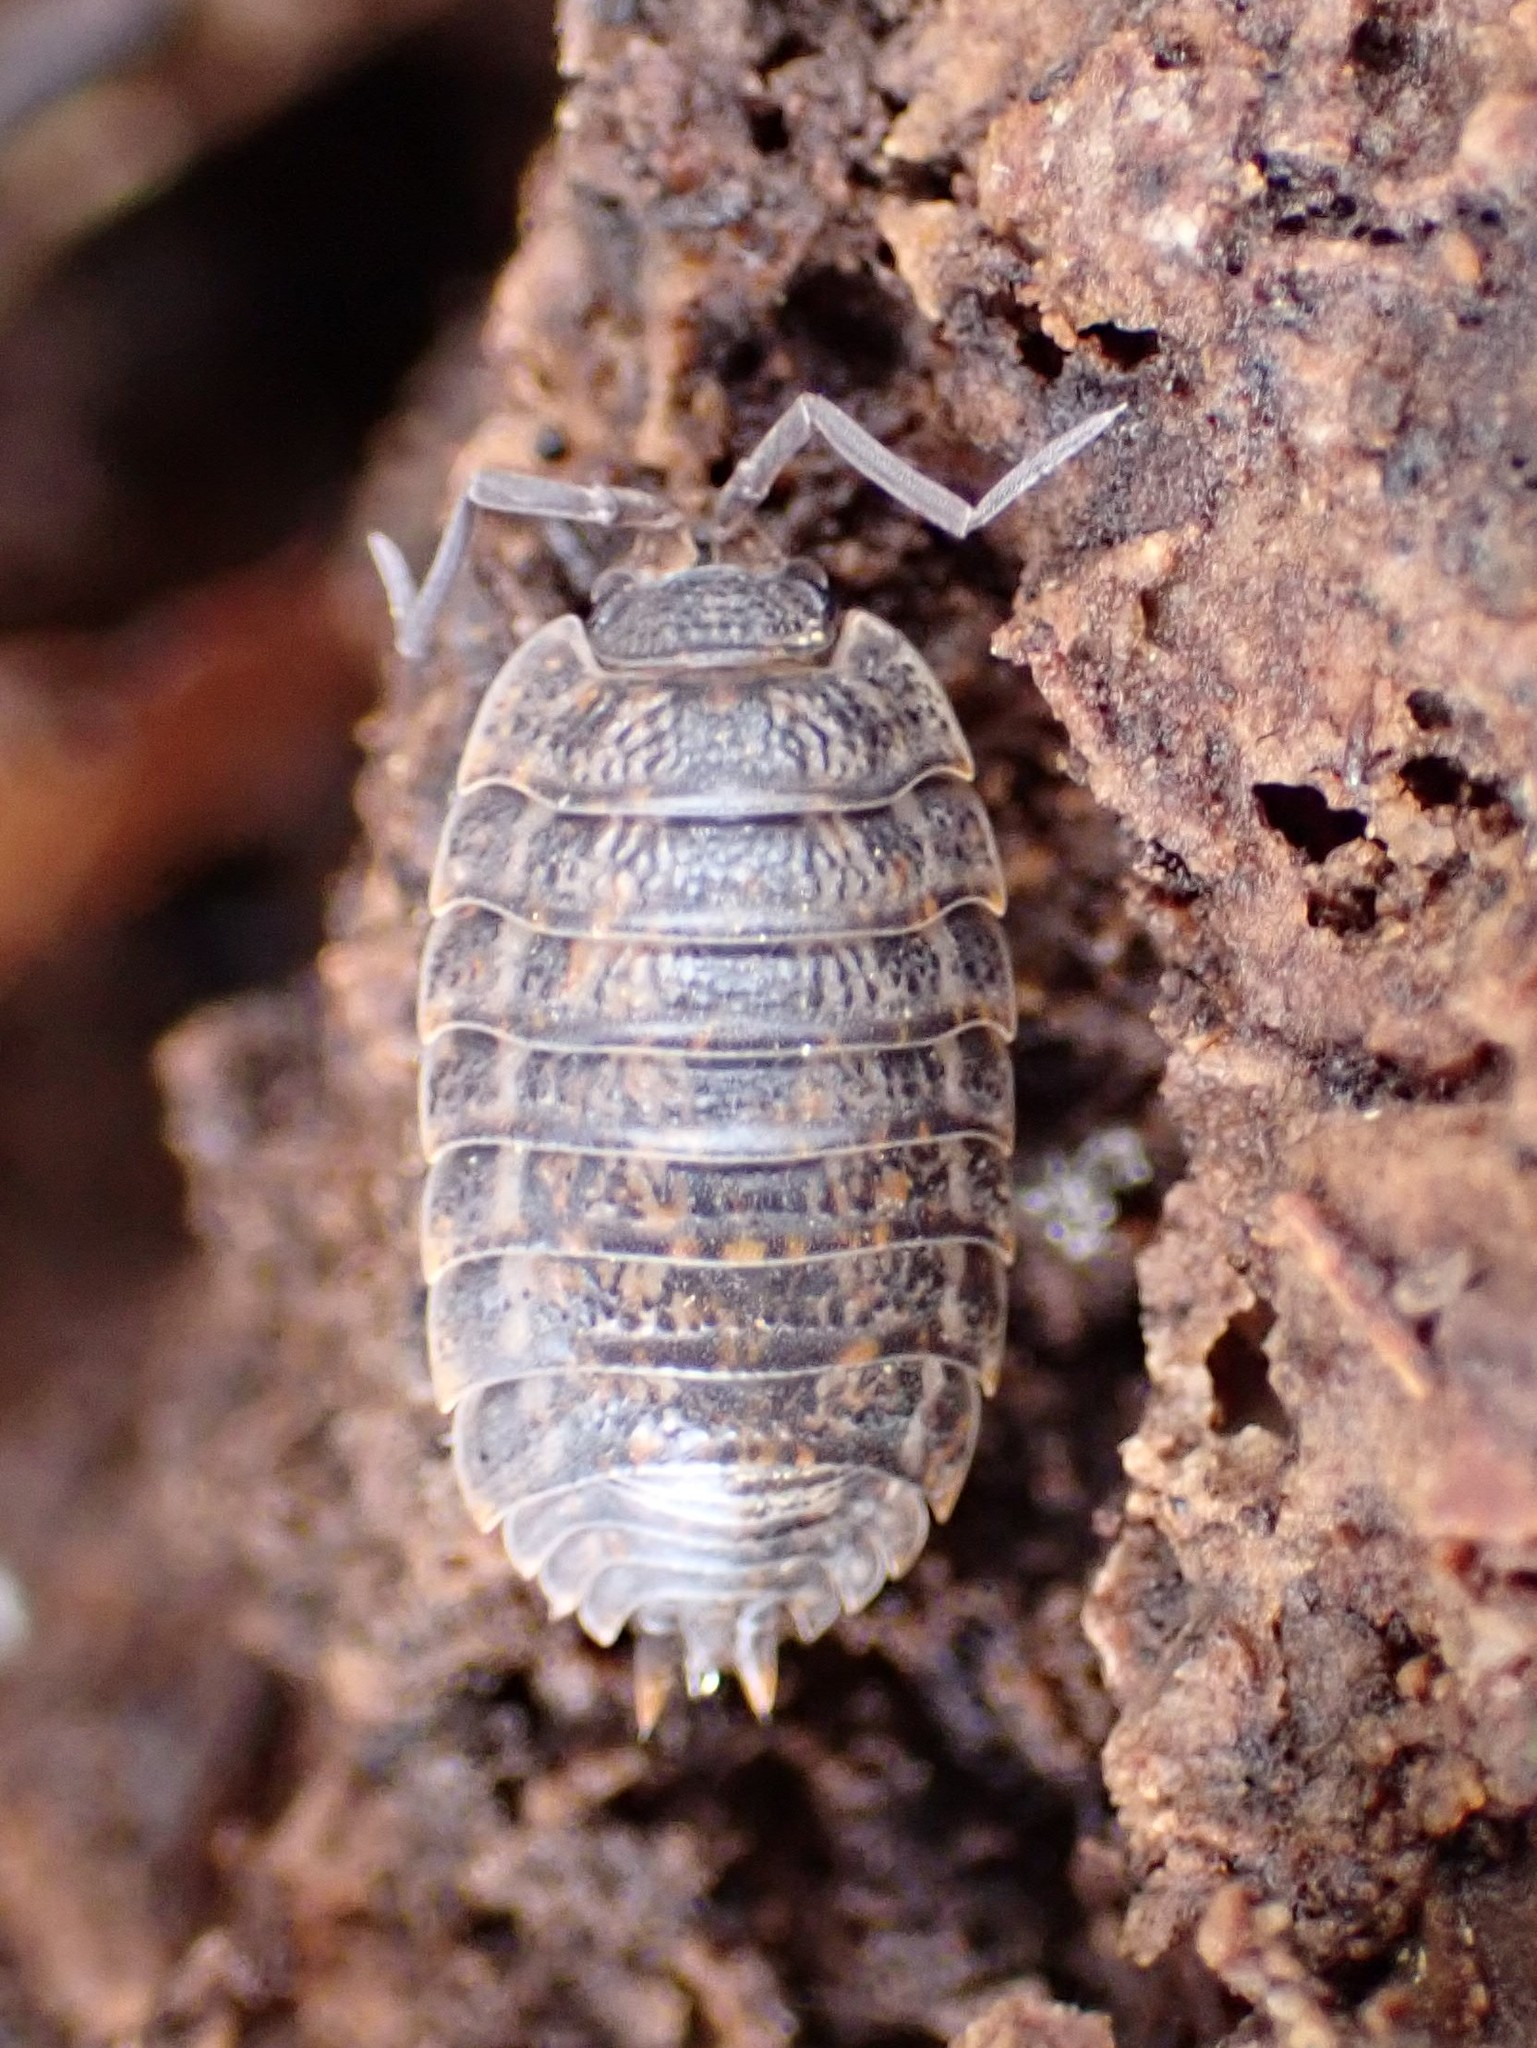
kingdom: Animalia
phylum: Arthropoda
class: Malacostraca
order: Isopoda
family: Trachelipodidae
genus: Trachelipus
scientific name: Trachelipus rathkii
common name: Isopod
